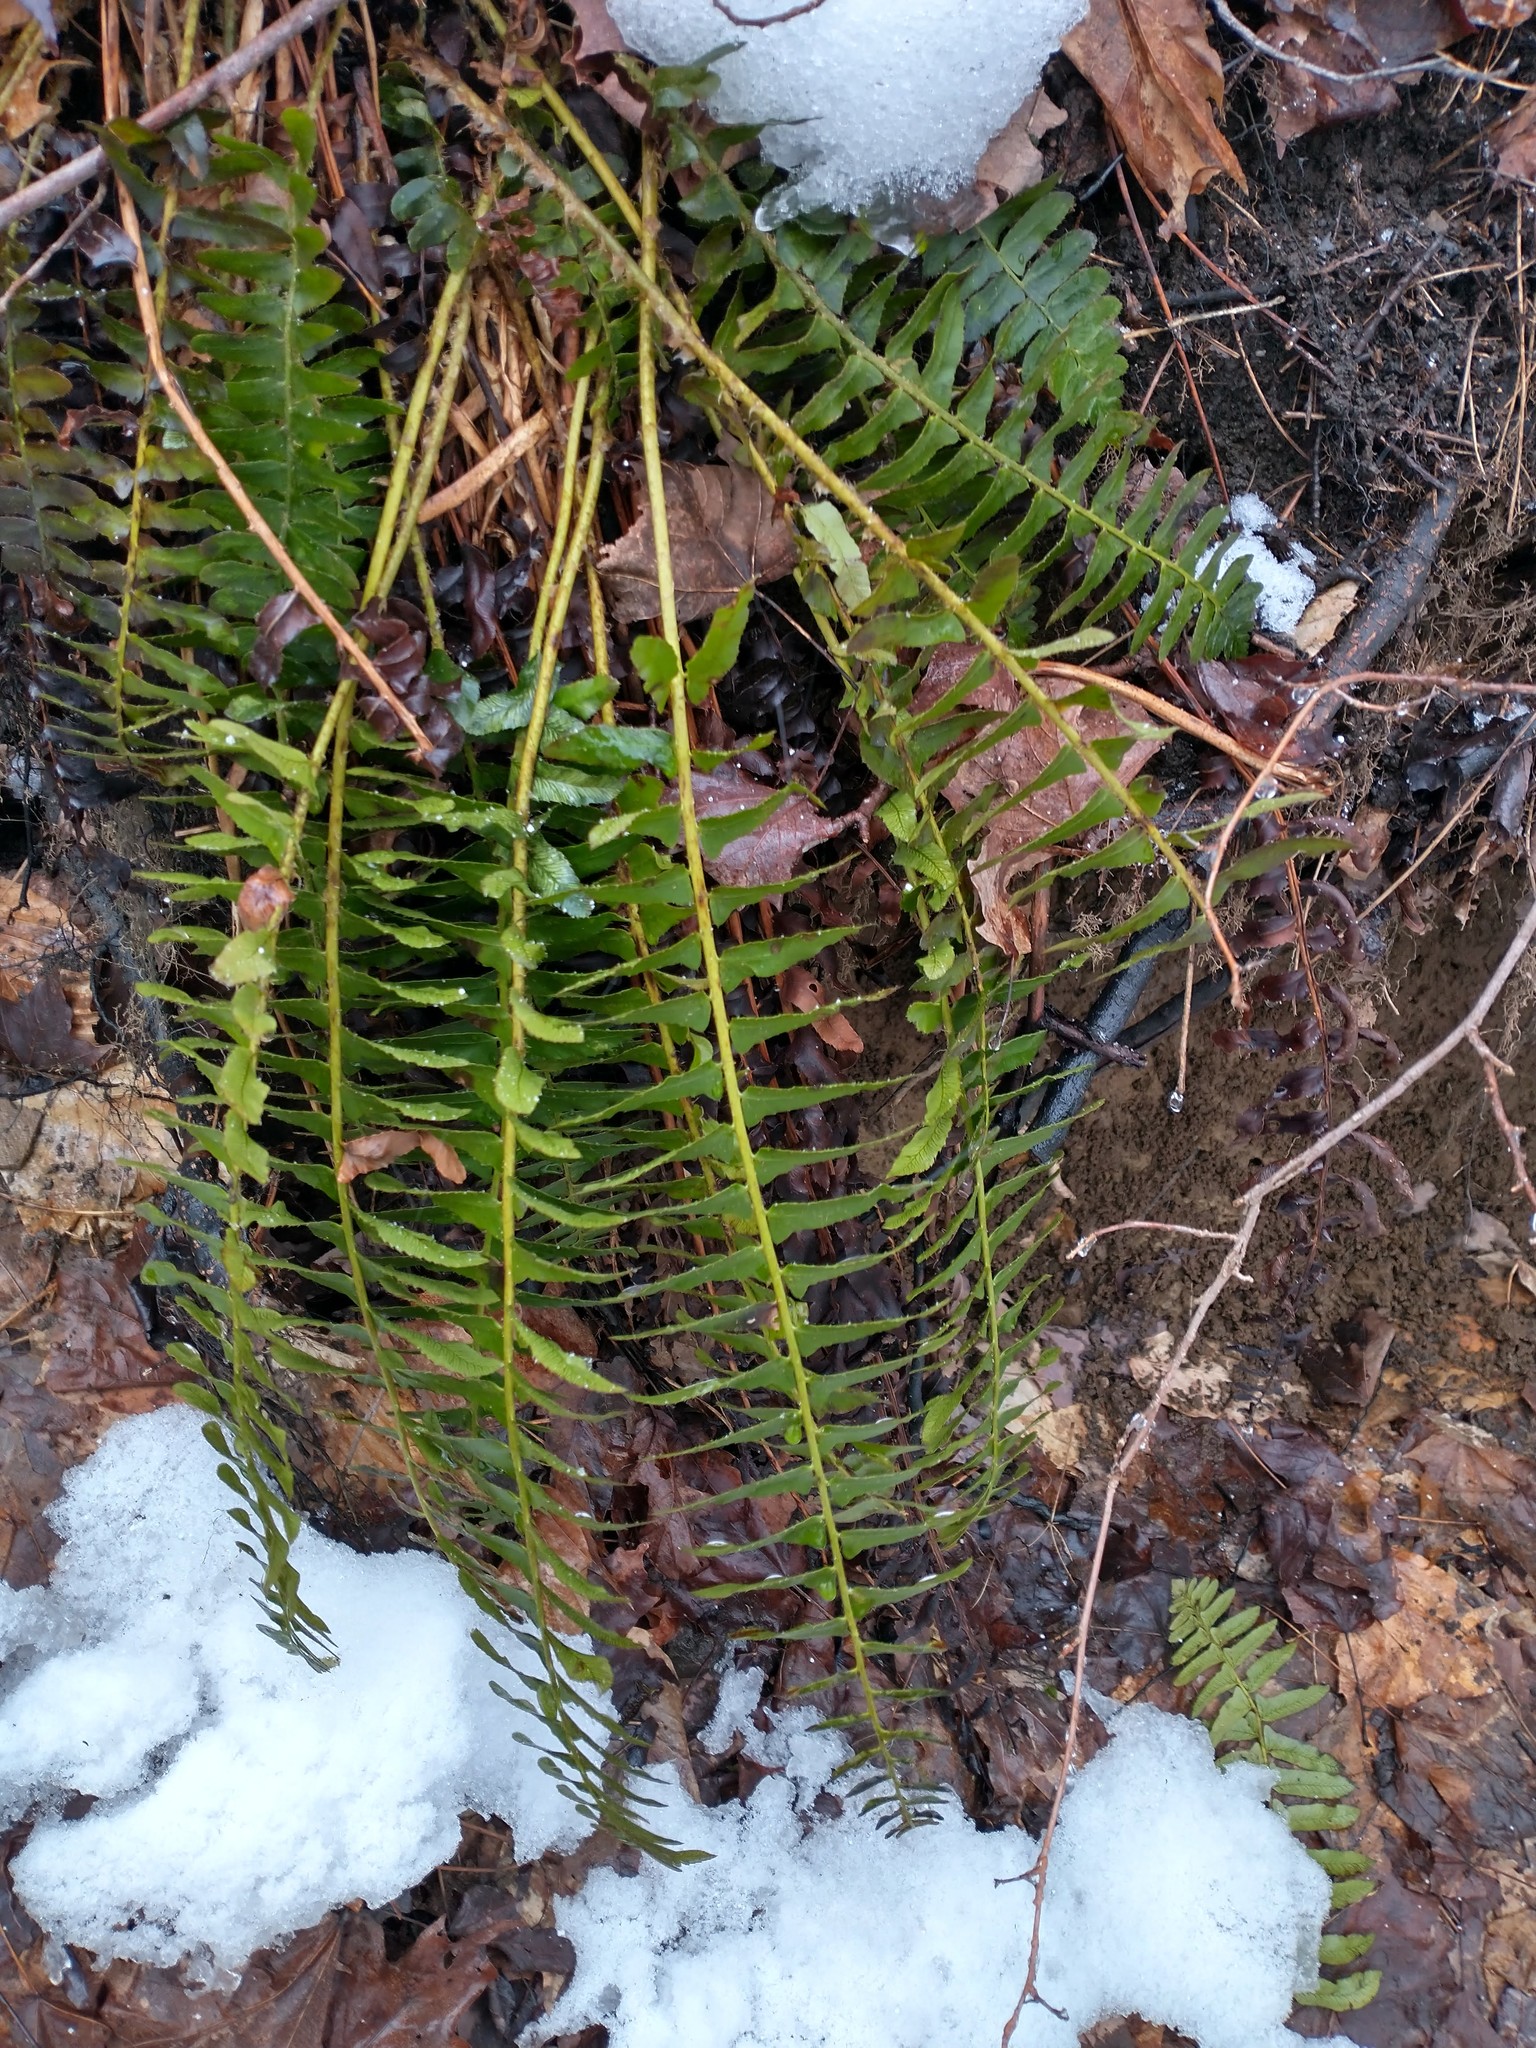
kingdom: Plantae
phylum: Tracheophyta
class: Polypodiopsida
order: Polypodiales
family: Dryopteridaceae
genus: Polystichum
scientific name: Polystichum acrostichoides
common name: Christmas fern
